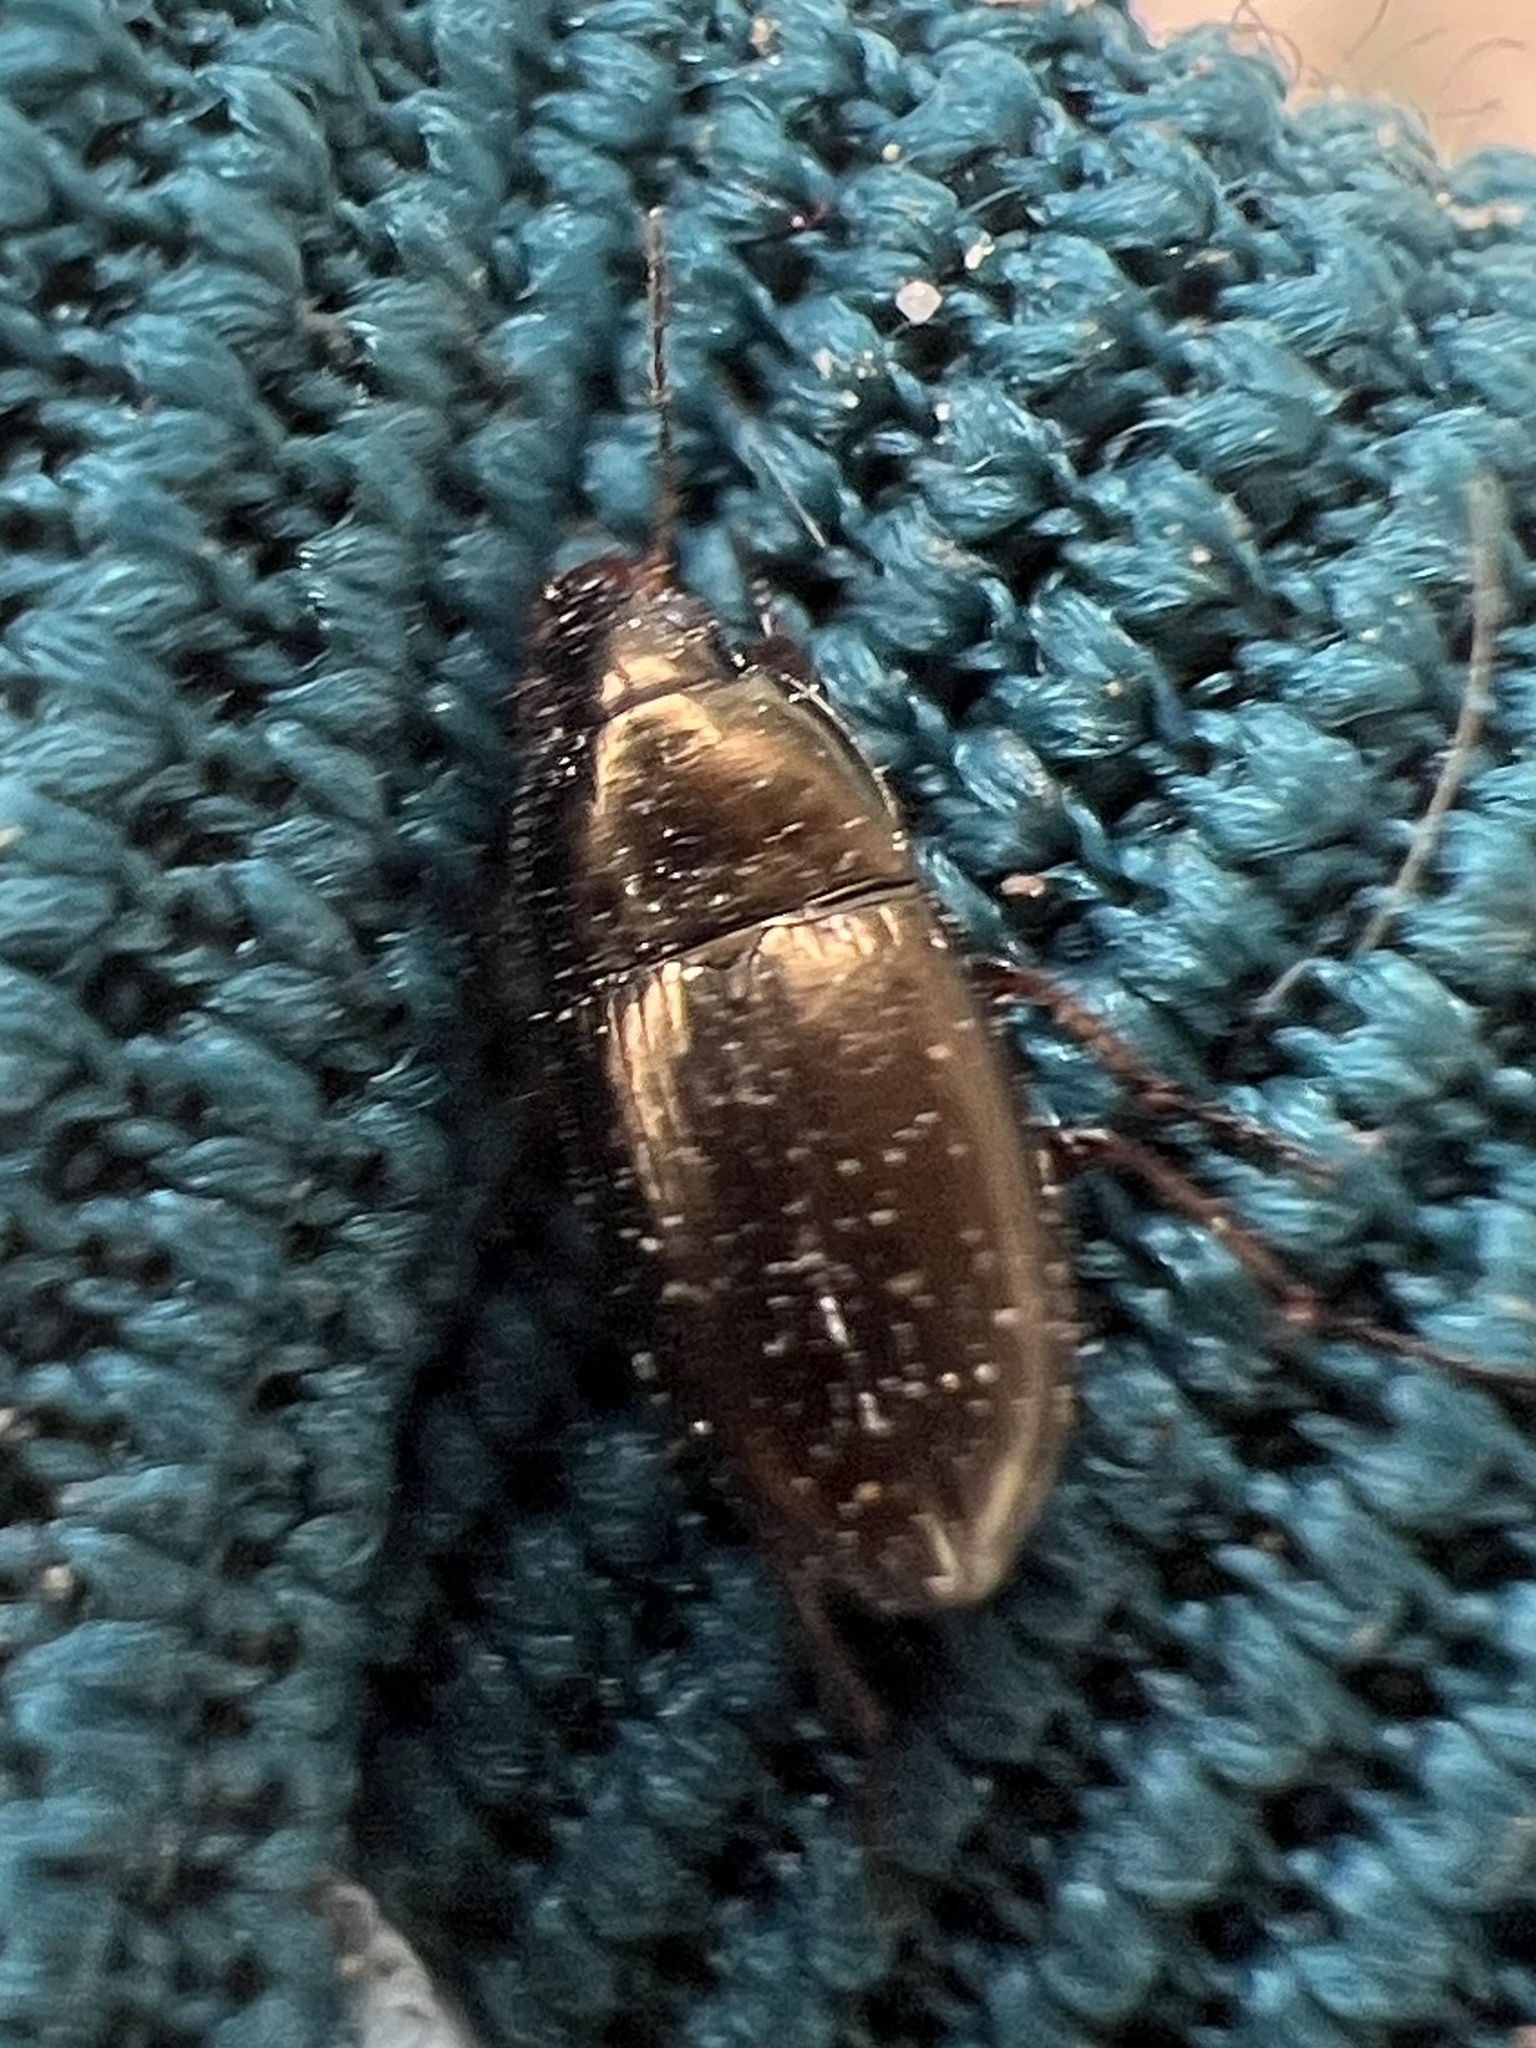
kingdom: Animalia
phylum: Arthropoda
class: Insecta
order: Coleoptera
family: Carabidae
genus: Amara
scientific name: Amara aenea
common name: Common sun beetle
